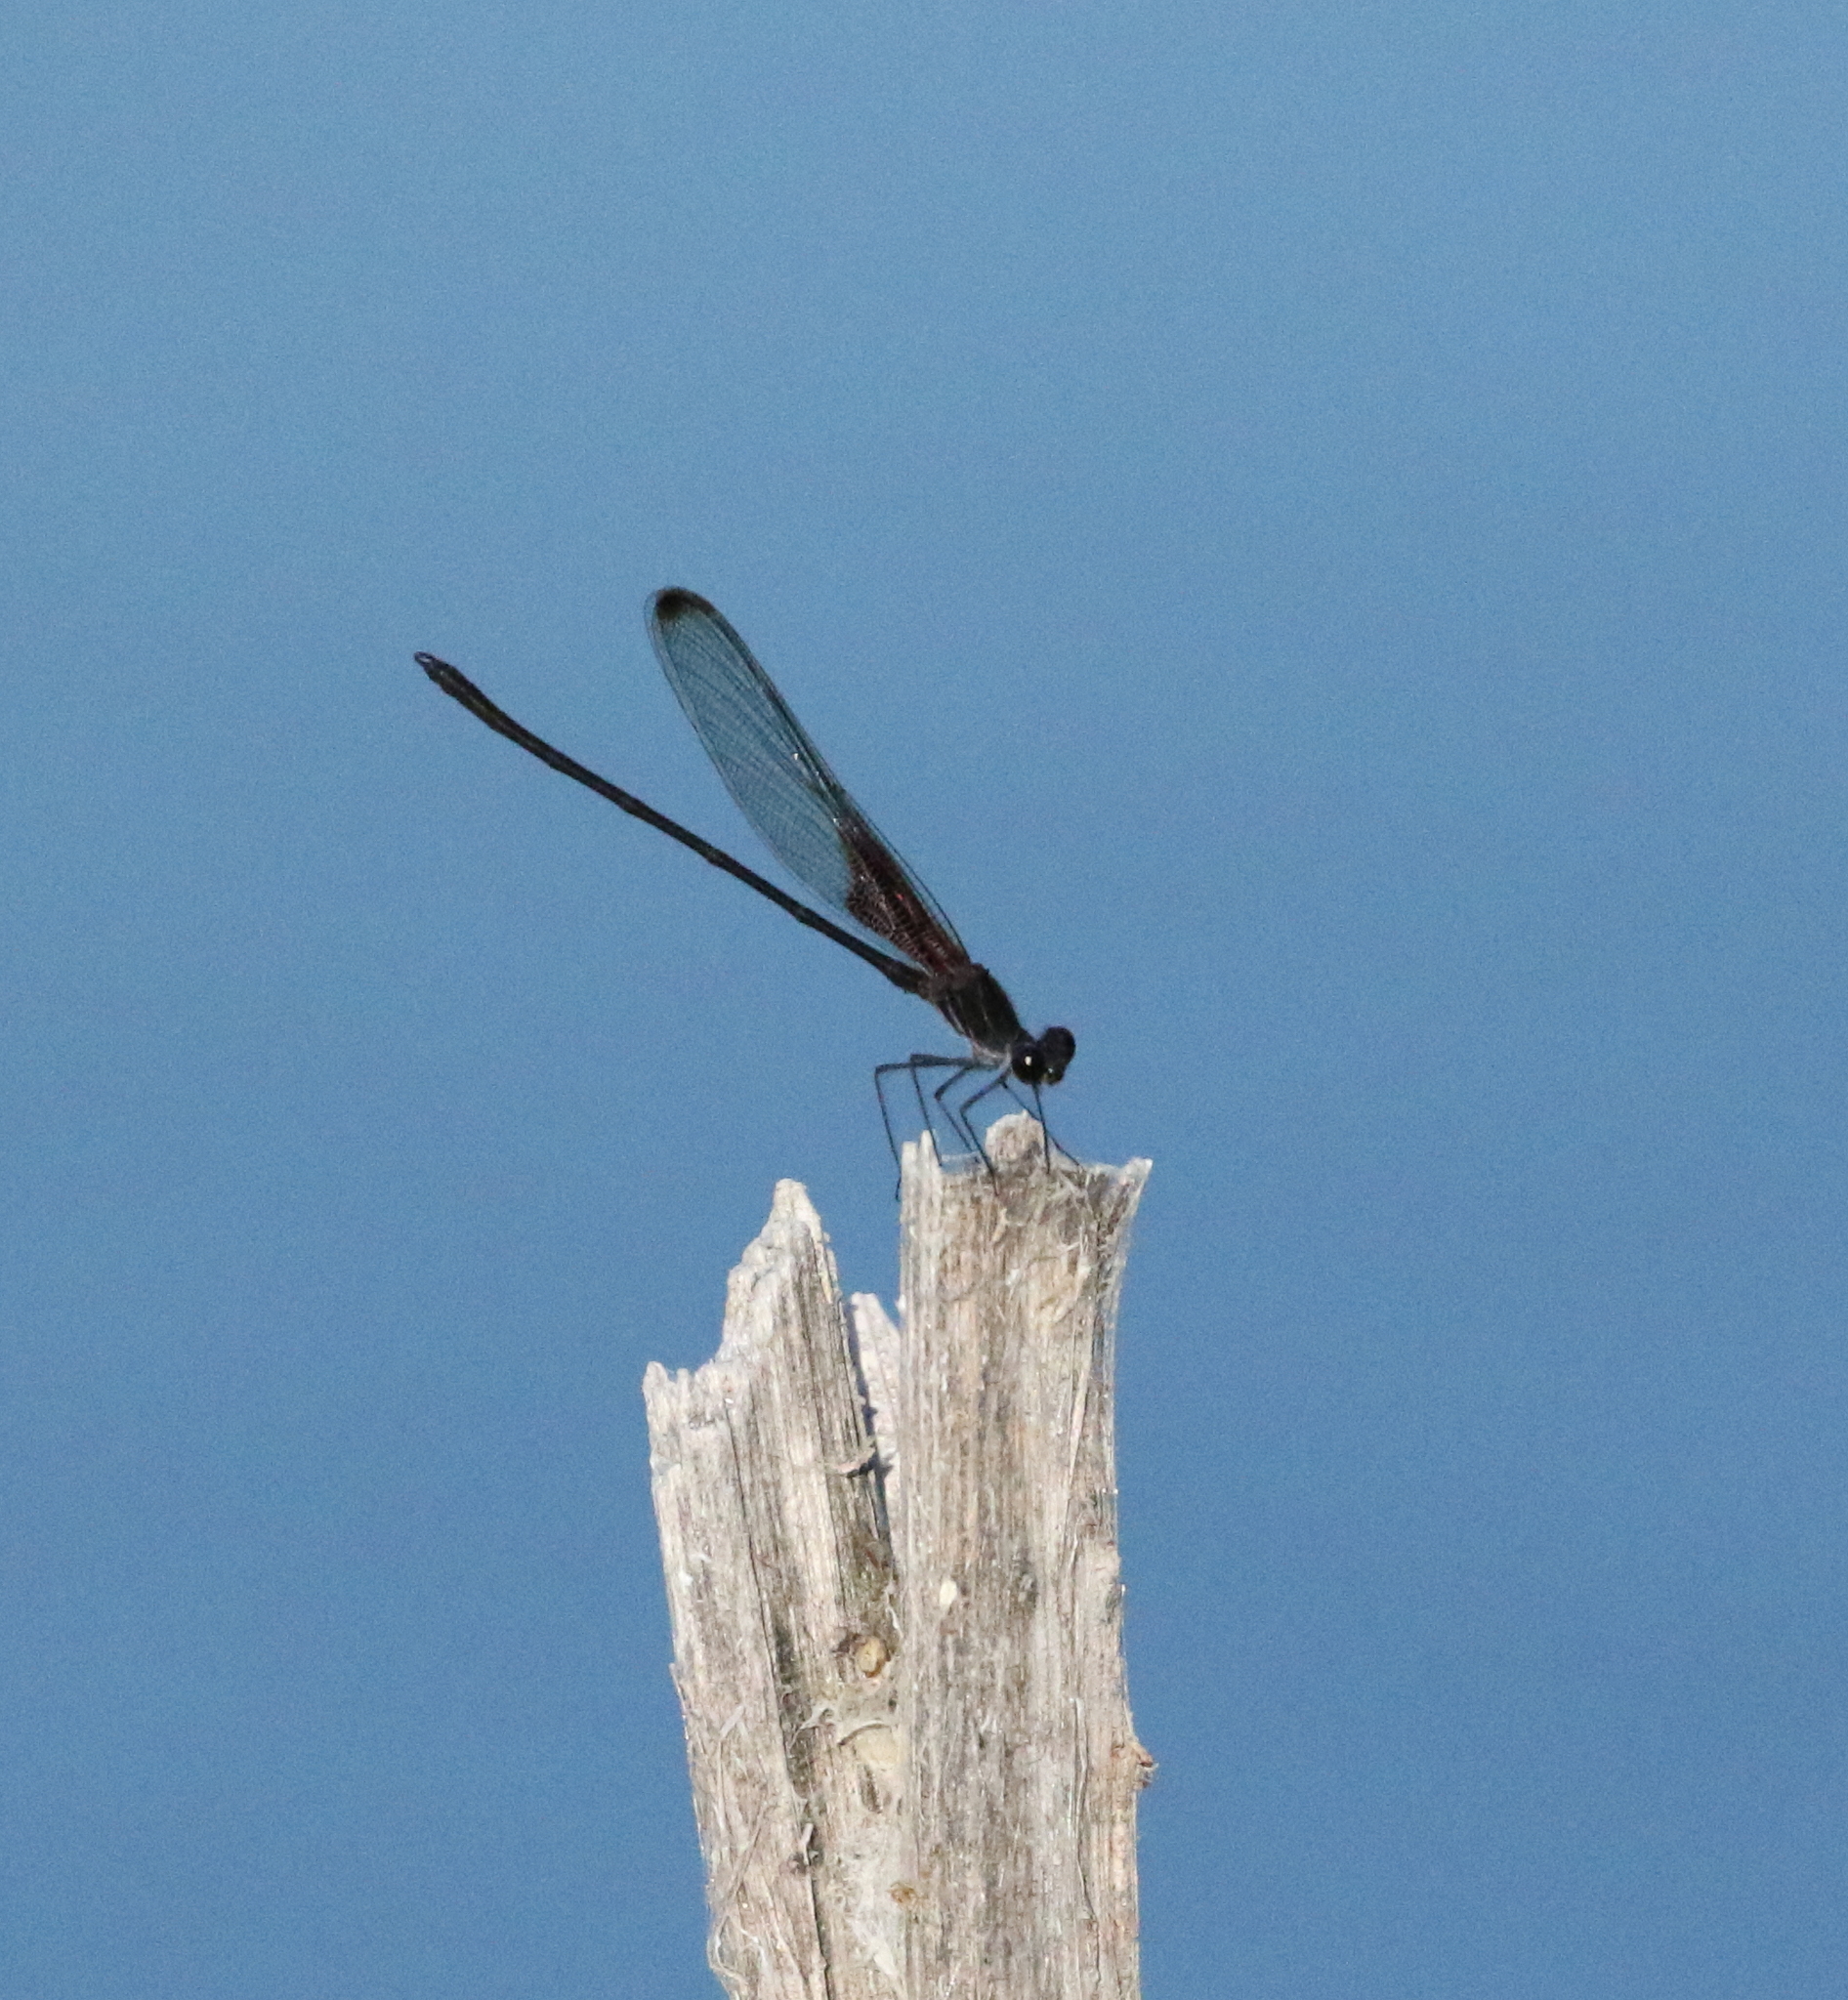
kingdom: Animalia
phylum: Arthropoda
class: Insecta
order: Odonata
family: Calopterygidae
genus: Hetaerina
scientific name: Hetaerina titia
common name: Smoky rubyspot
